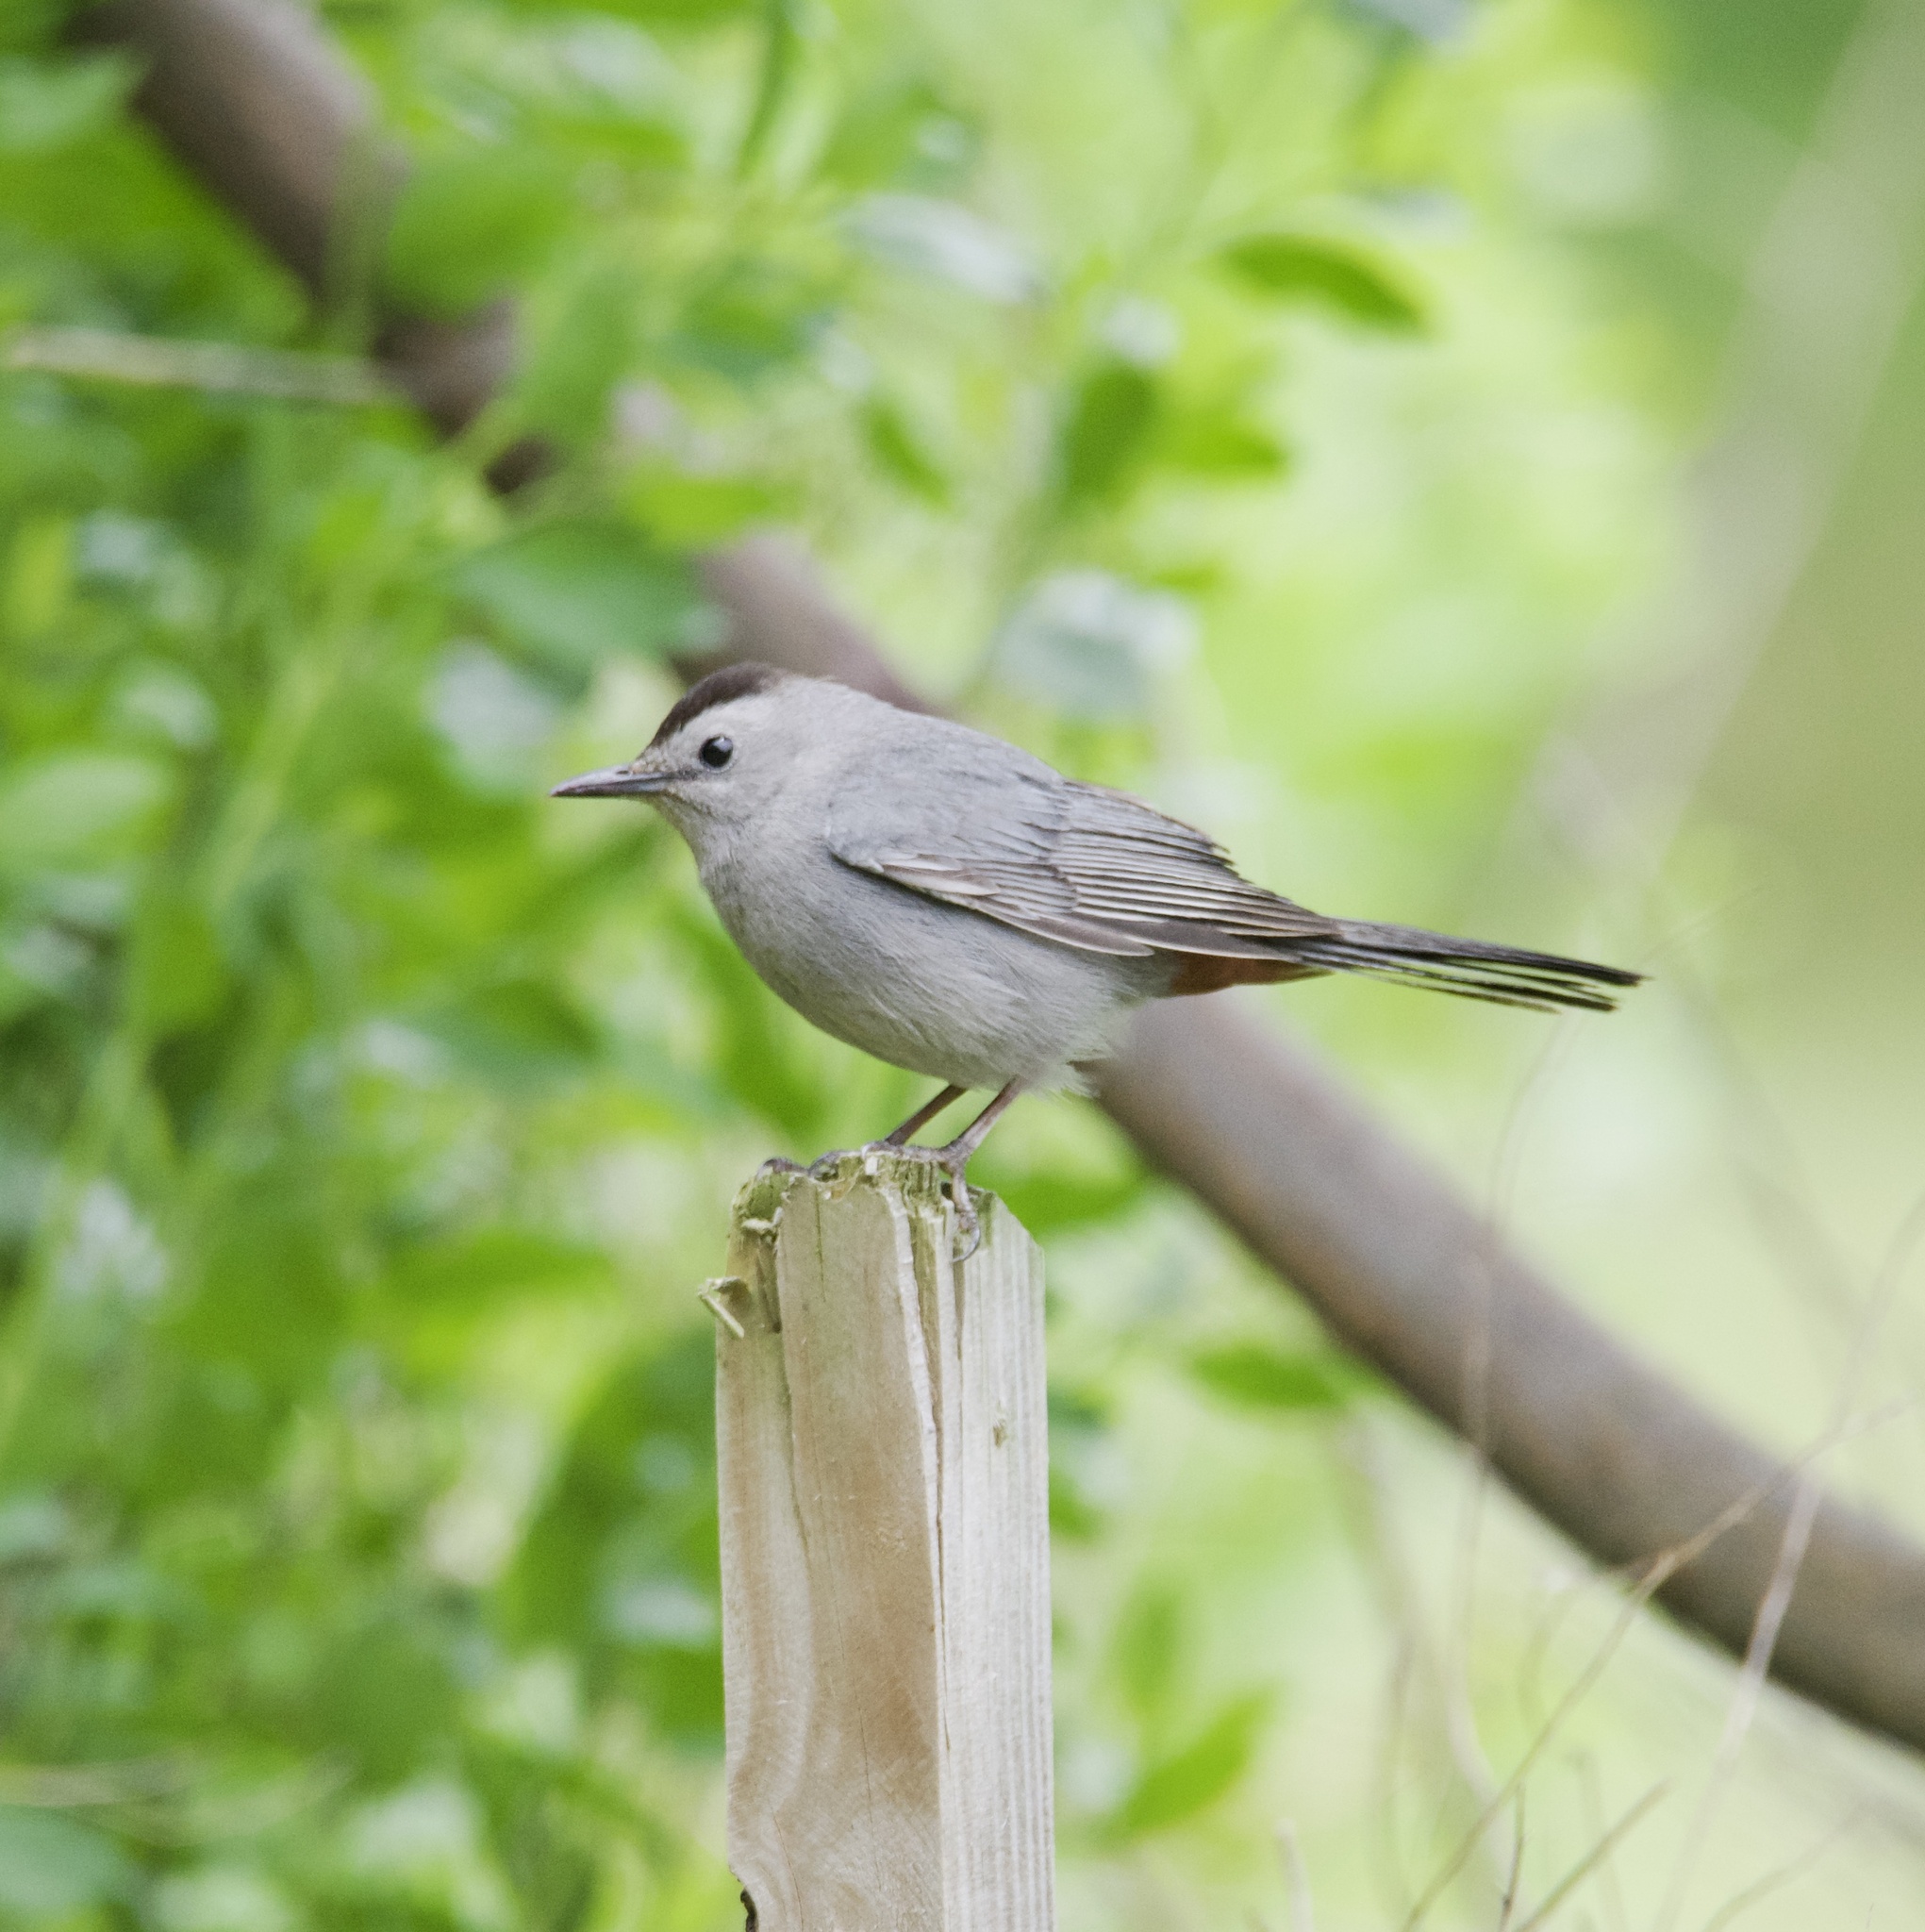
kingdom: Animalia
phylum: Chordata
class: Aves
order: Passeriformes
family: Mimidae
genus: Dumetella
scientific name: Dumetella carolinensis
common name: Gray catbird
